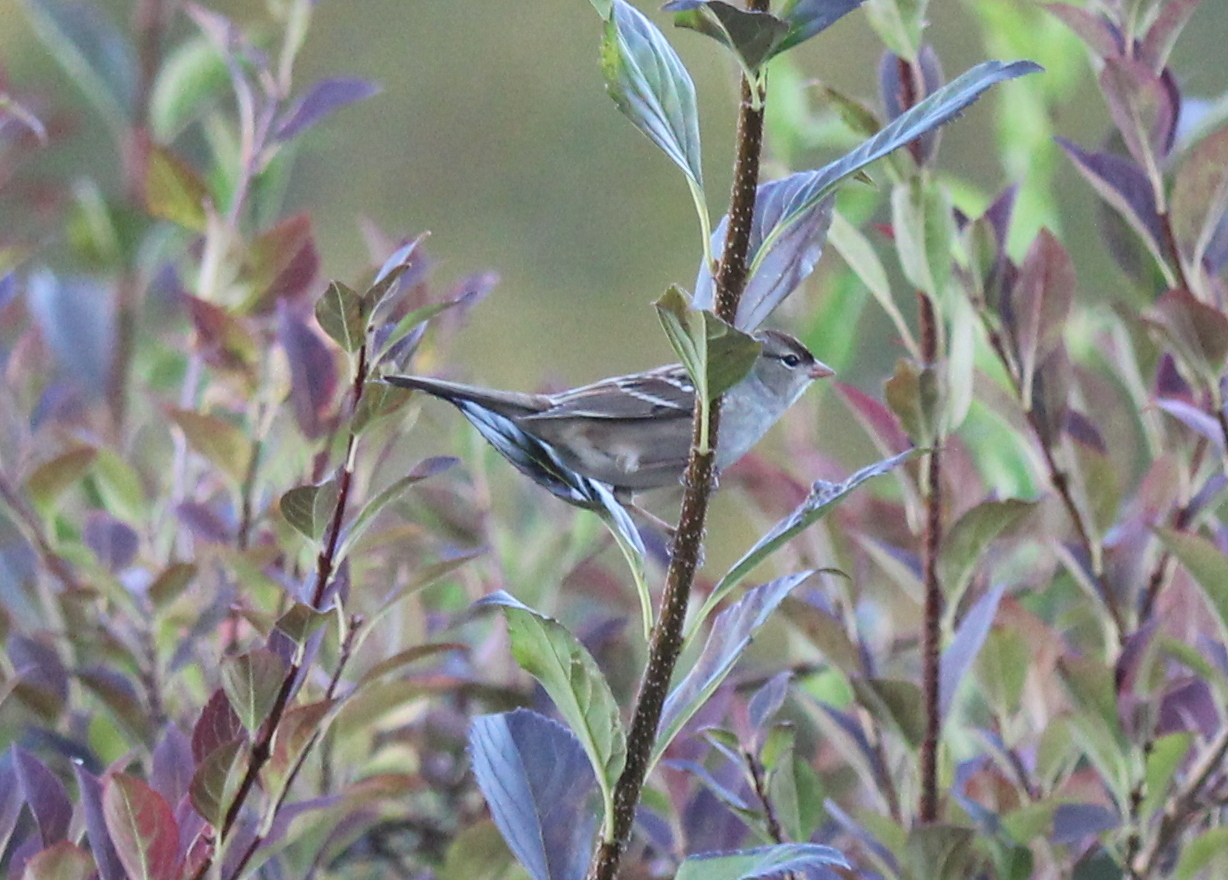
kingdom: Animalia
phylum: Chordata
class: Aves
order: Passeriformes
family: Passerellidae
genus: Zonotrichia
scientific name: Zonotrichia leucophrys
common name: White-crowned sparrow
